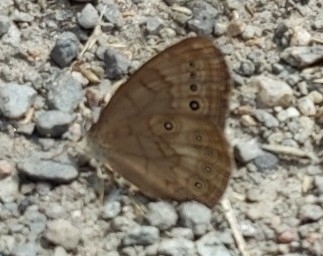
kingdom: Animalia
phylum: Arthropoda
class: Insecta
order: Lepidoptera
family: Nymphalidae
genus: Lethe
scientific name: Lethe eurydice
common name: Eyed brown
